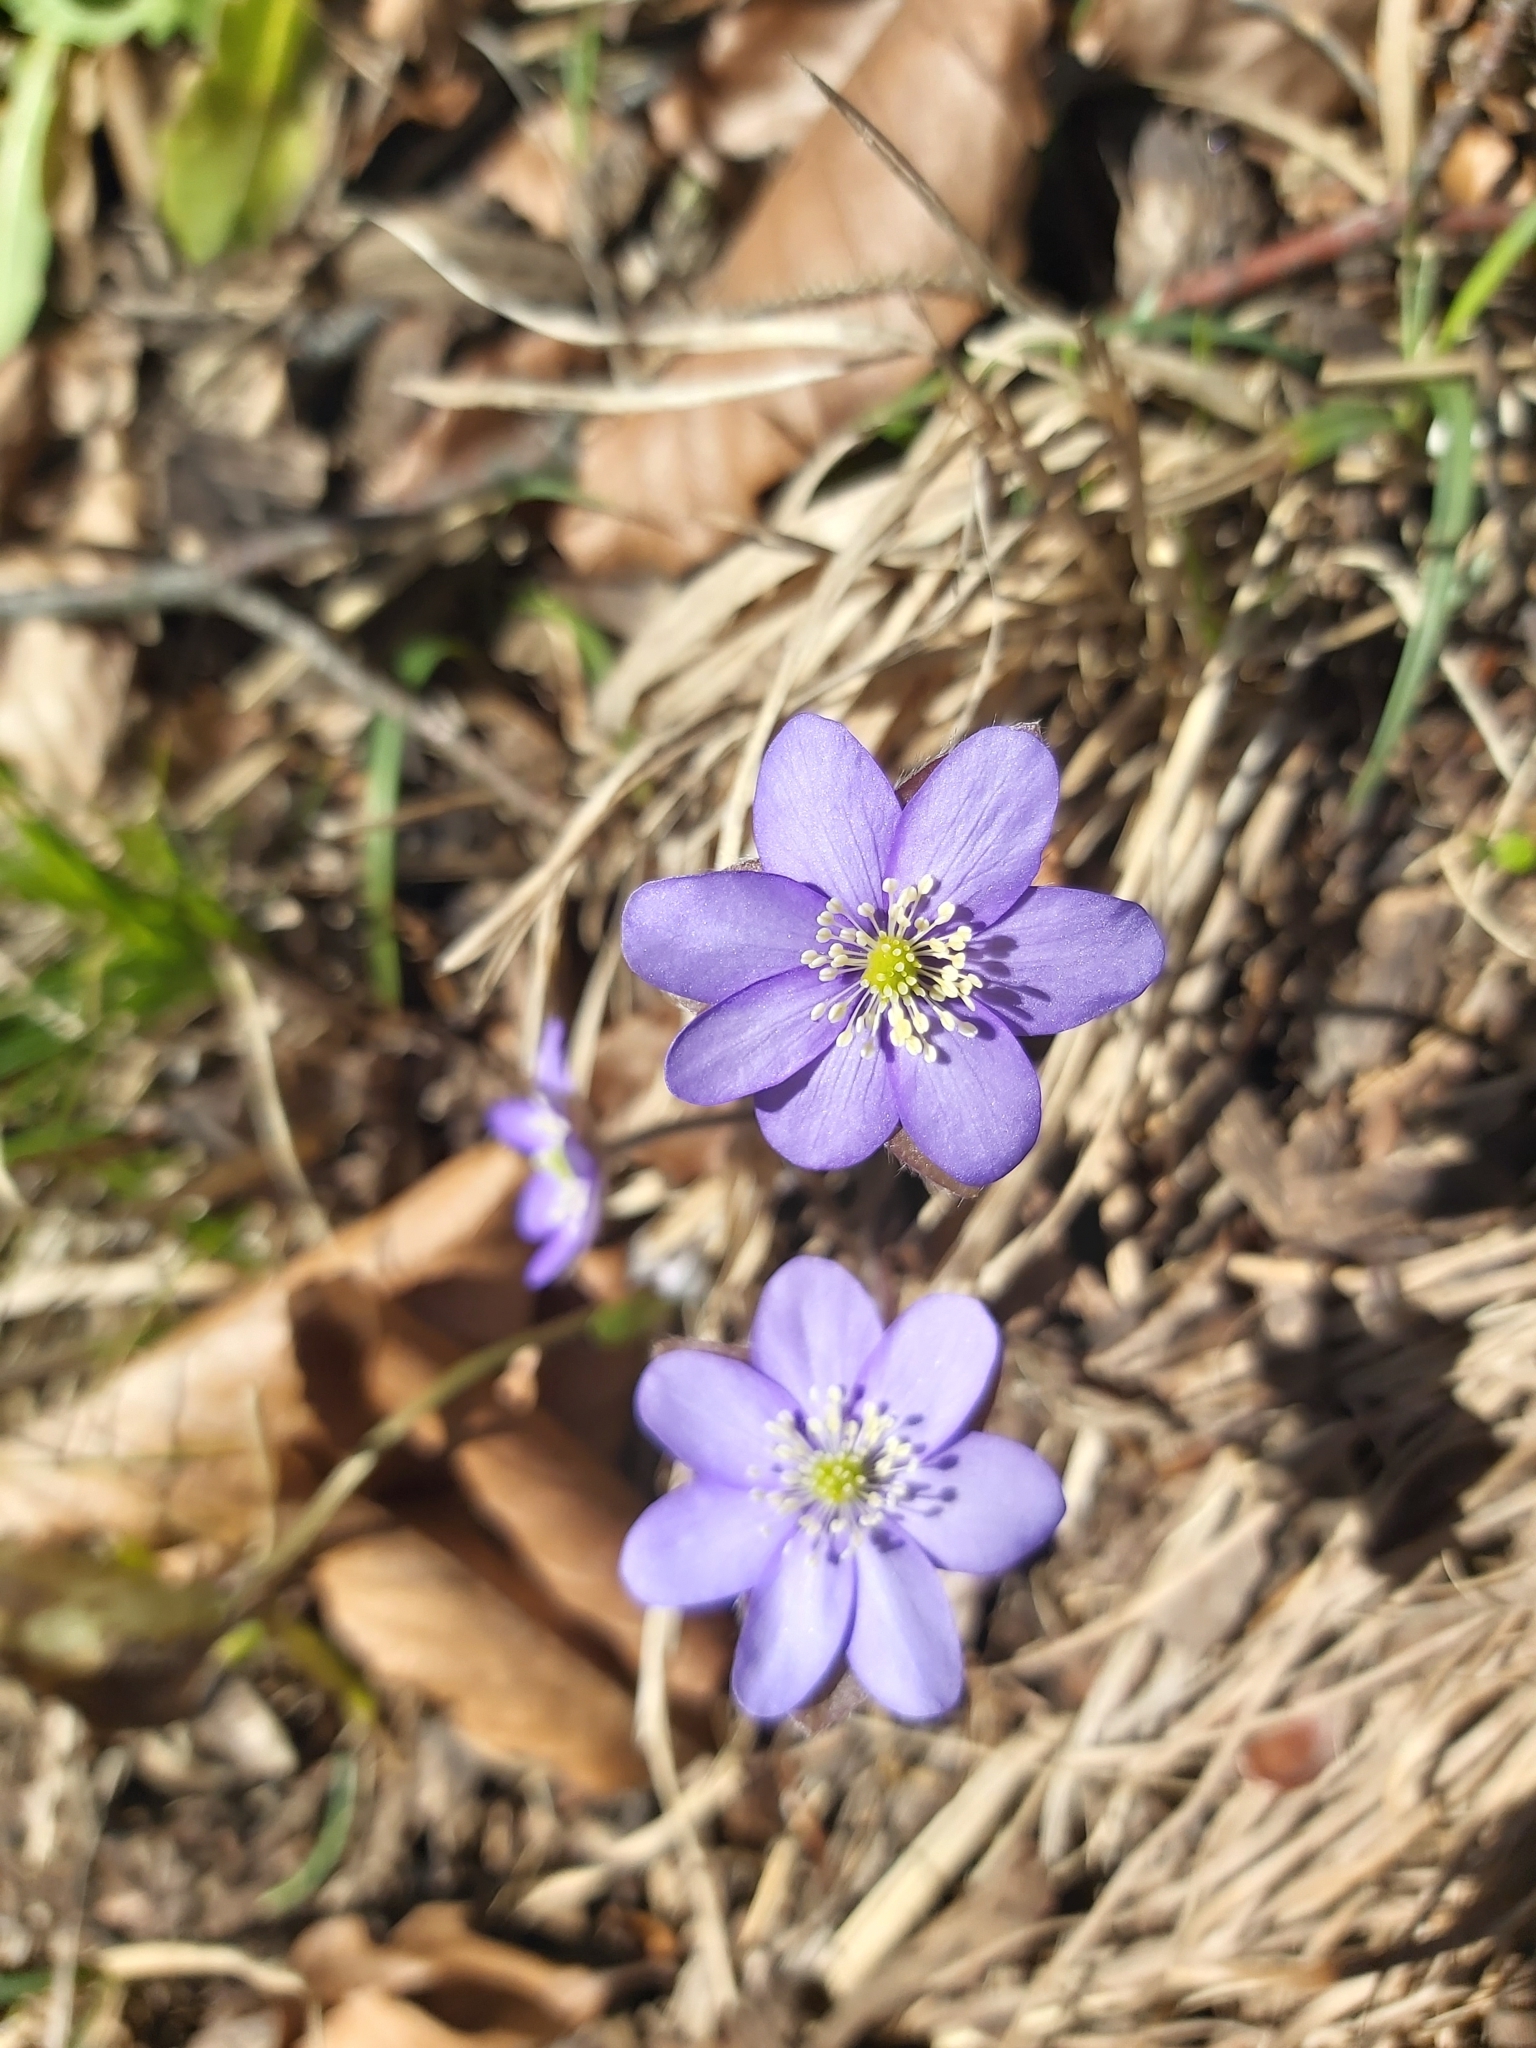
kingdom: Plantae
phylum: Tracheophyta
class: Magnoliopsida
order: Ranunculales
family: Ranunculaceae
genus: Hepatica
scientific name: Hepatica nobilis
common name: Liverleaf
